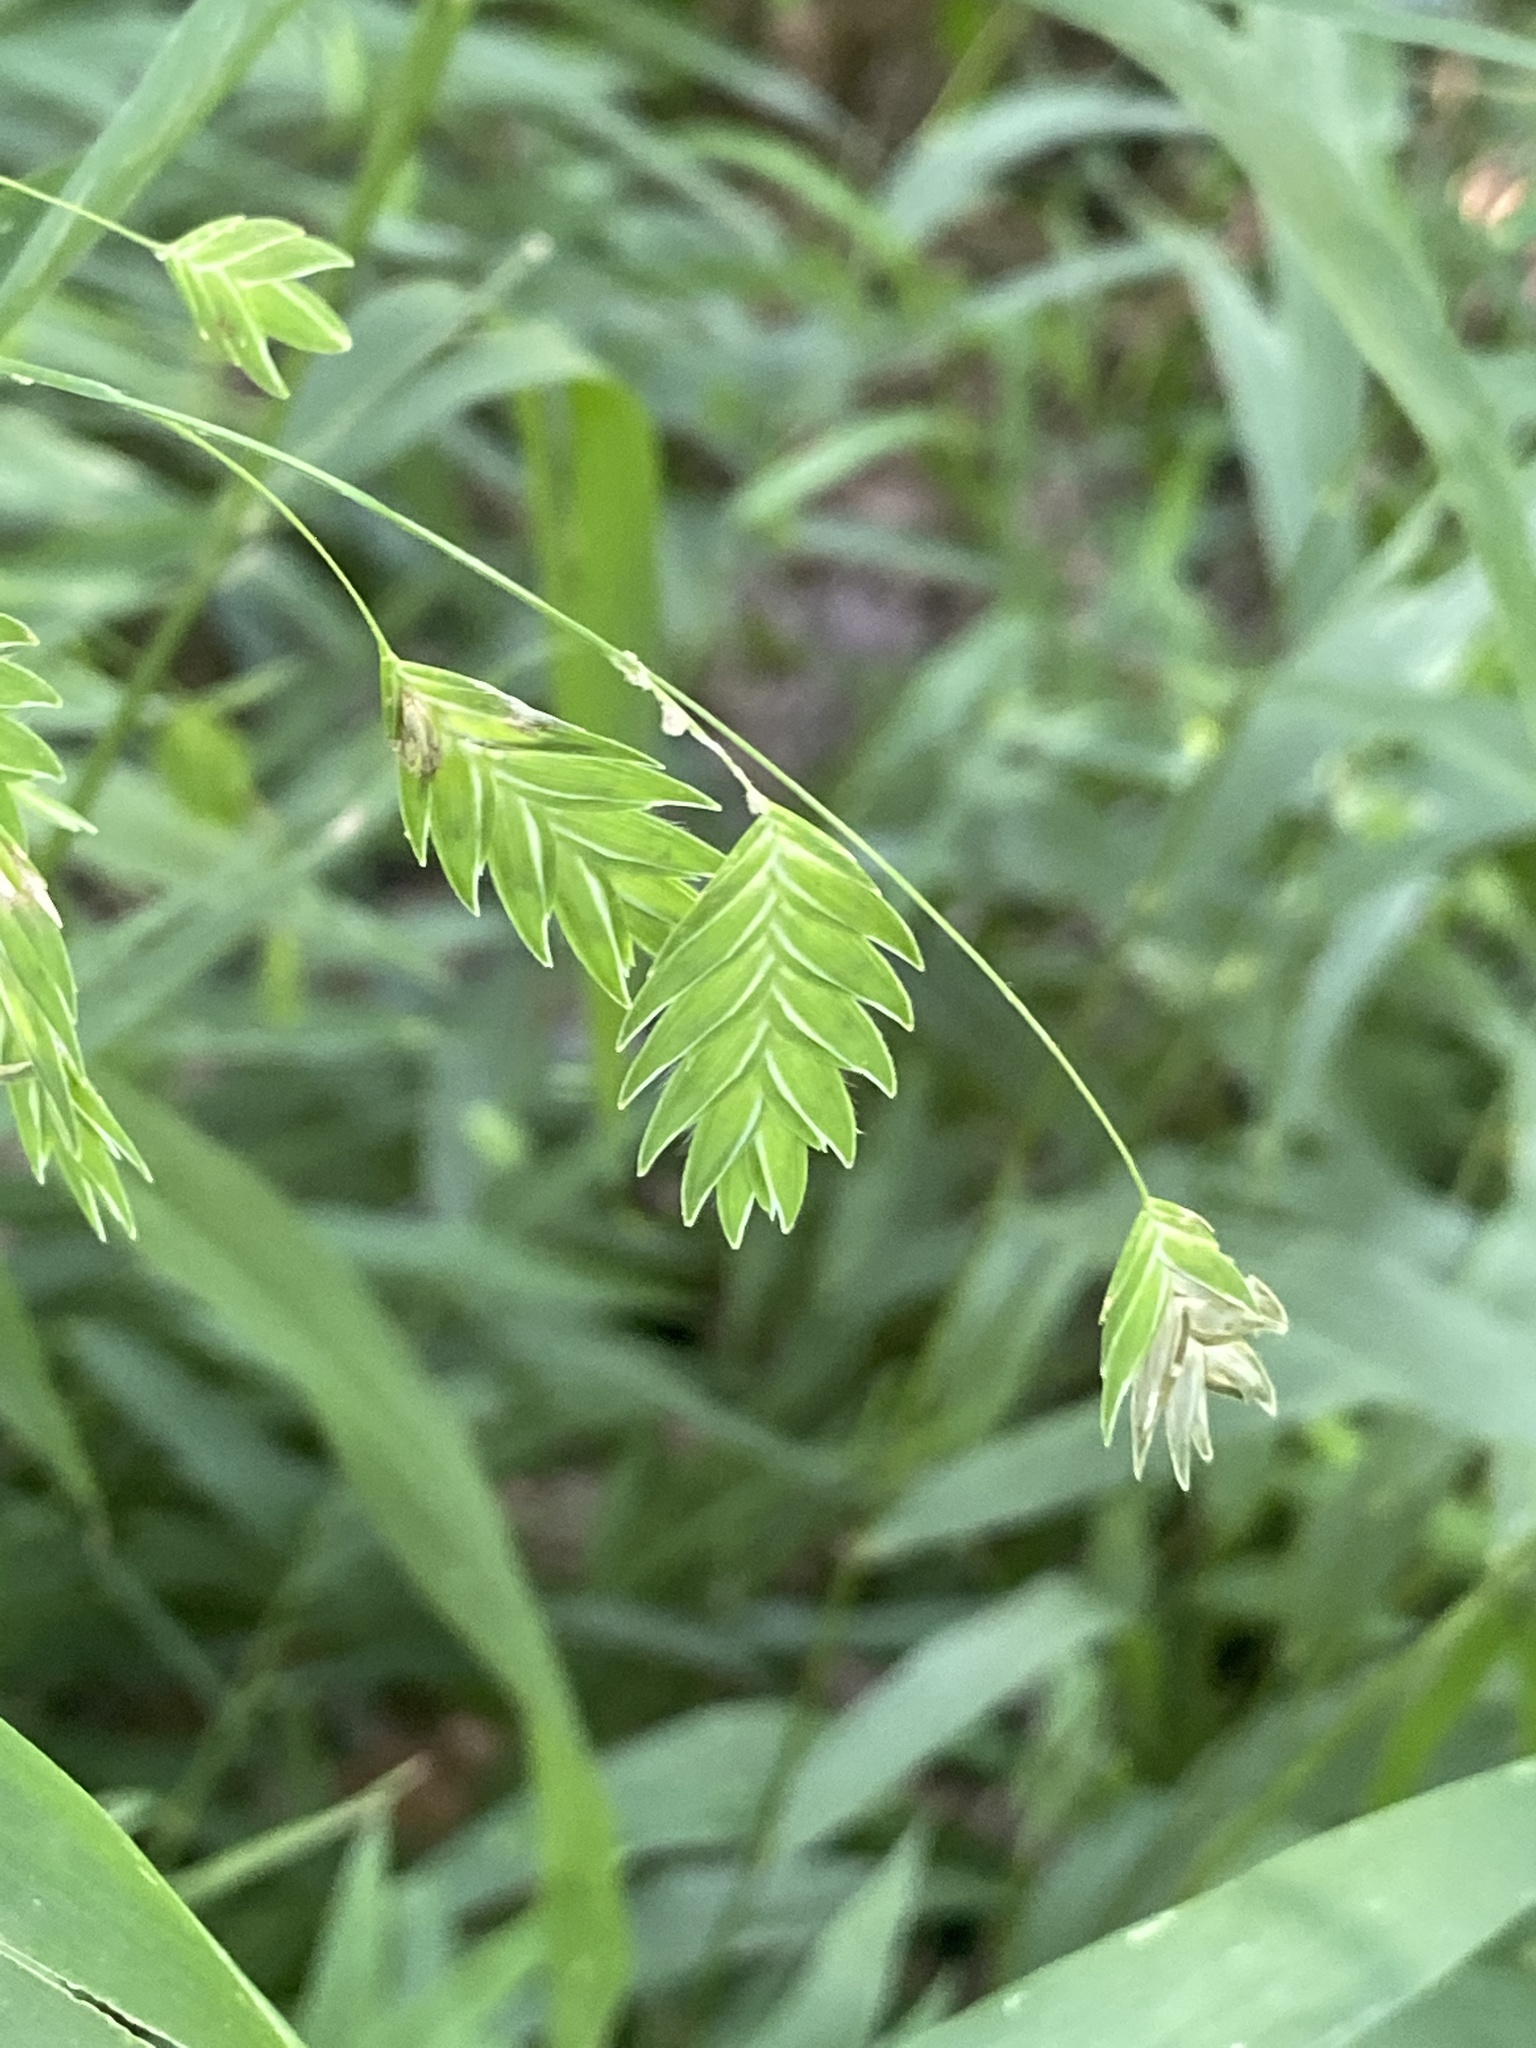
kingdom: Plantae
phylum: Tracheophyta
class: Liliopsida
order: Poales
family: Poaceae
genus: Chasmanthium
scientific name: Chasmanthium latifolium
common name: Broad-leaved chasmanthium
